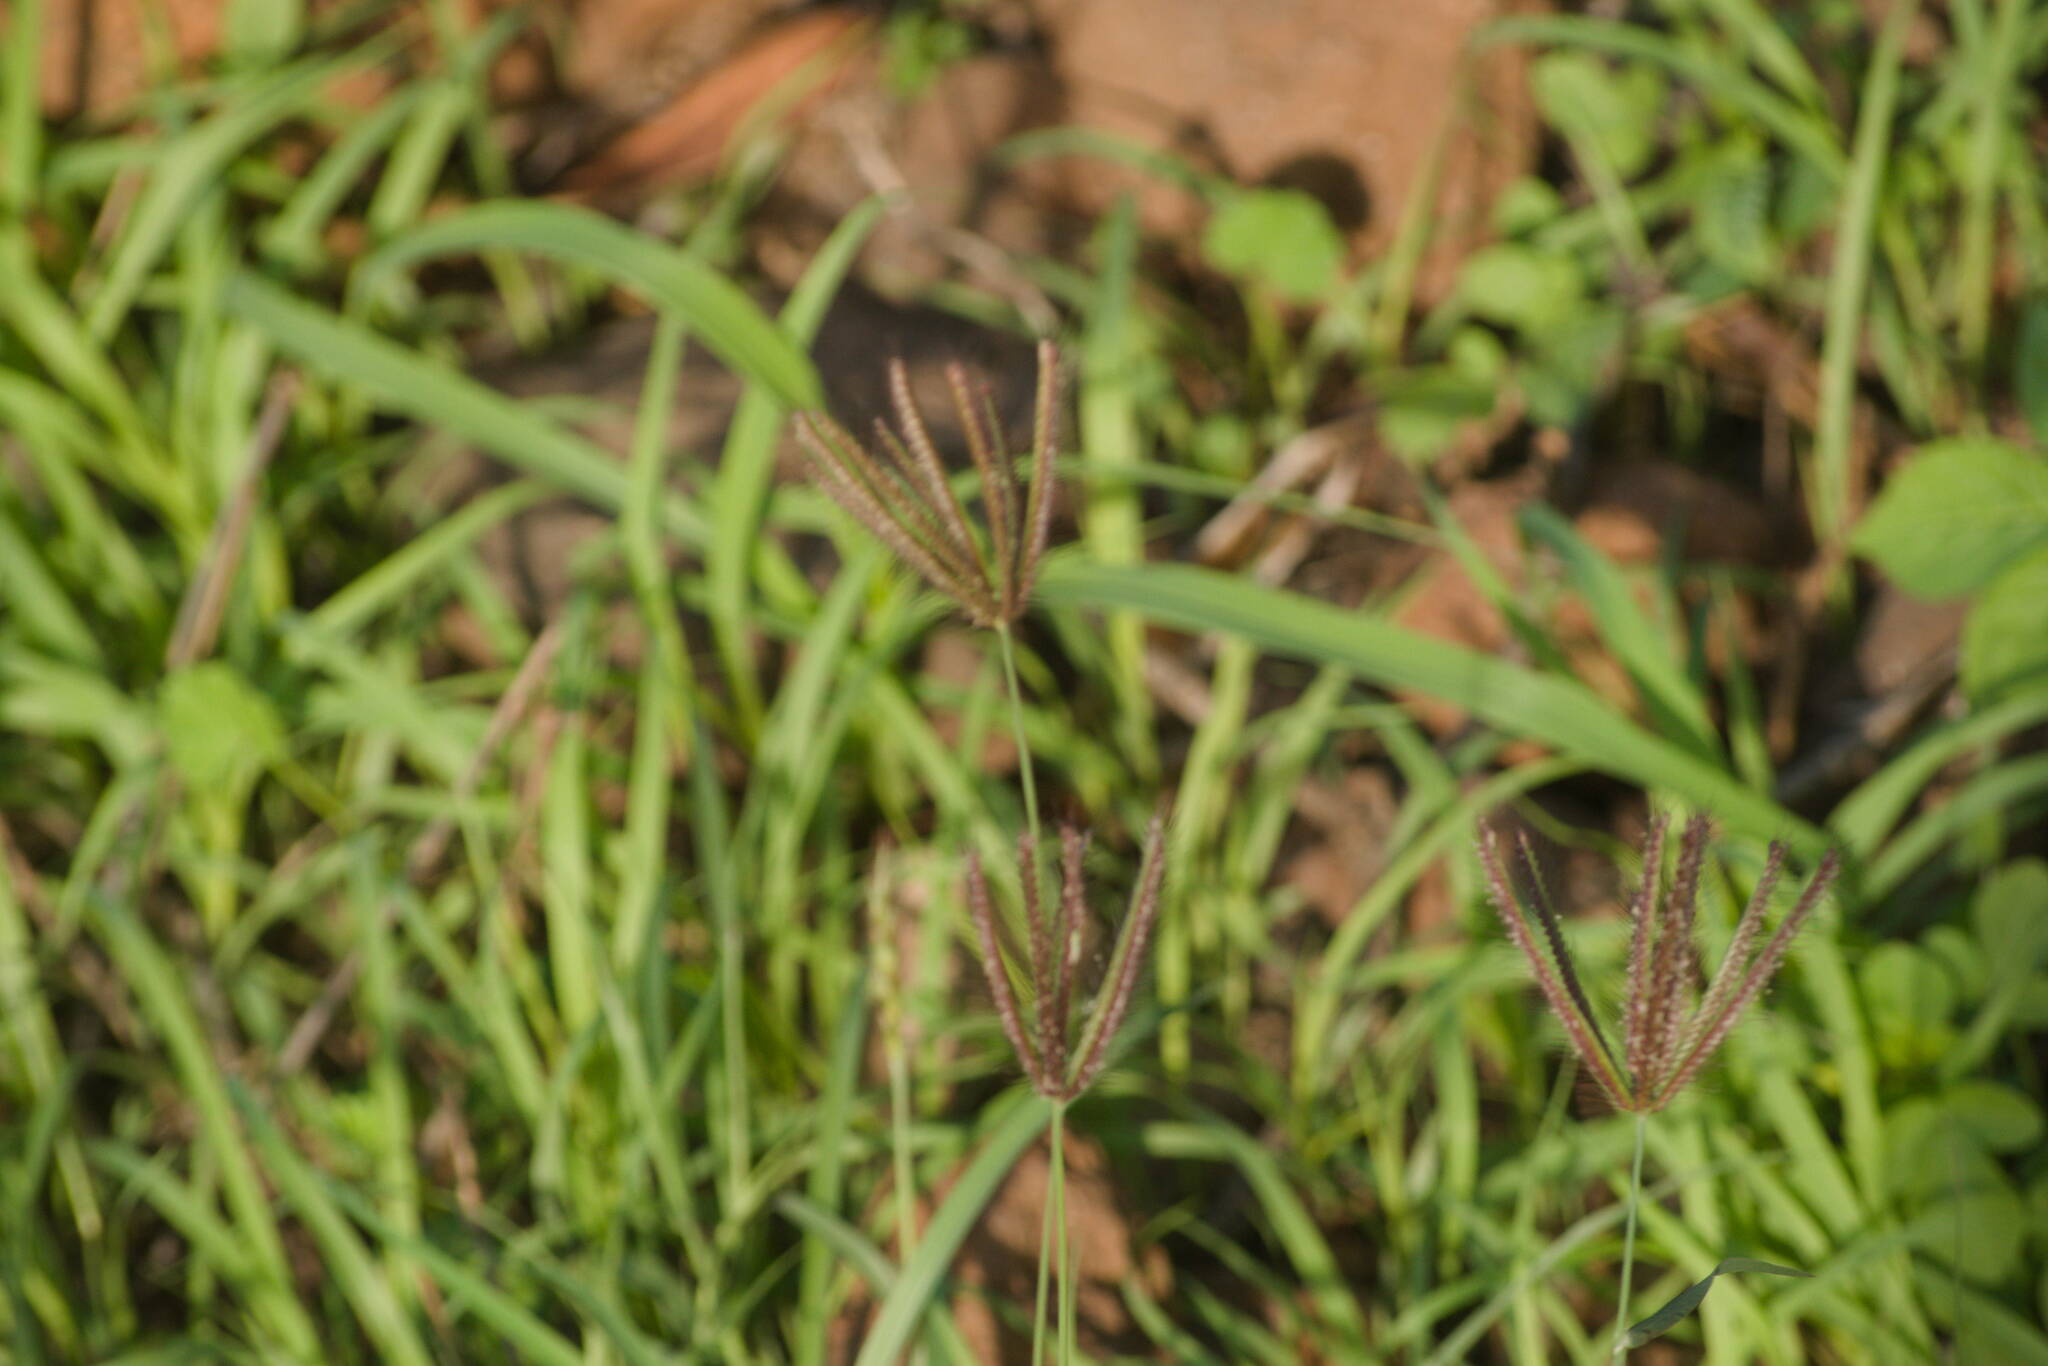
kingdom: Plantae
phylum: Tracheophyta
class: Liliopsida
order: Poales
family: Poaceae
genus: Chloris
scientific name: Chloris barbata
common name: Swollen fingergrass
